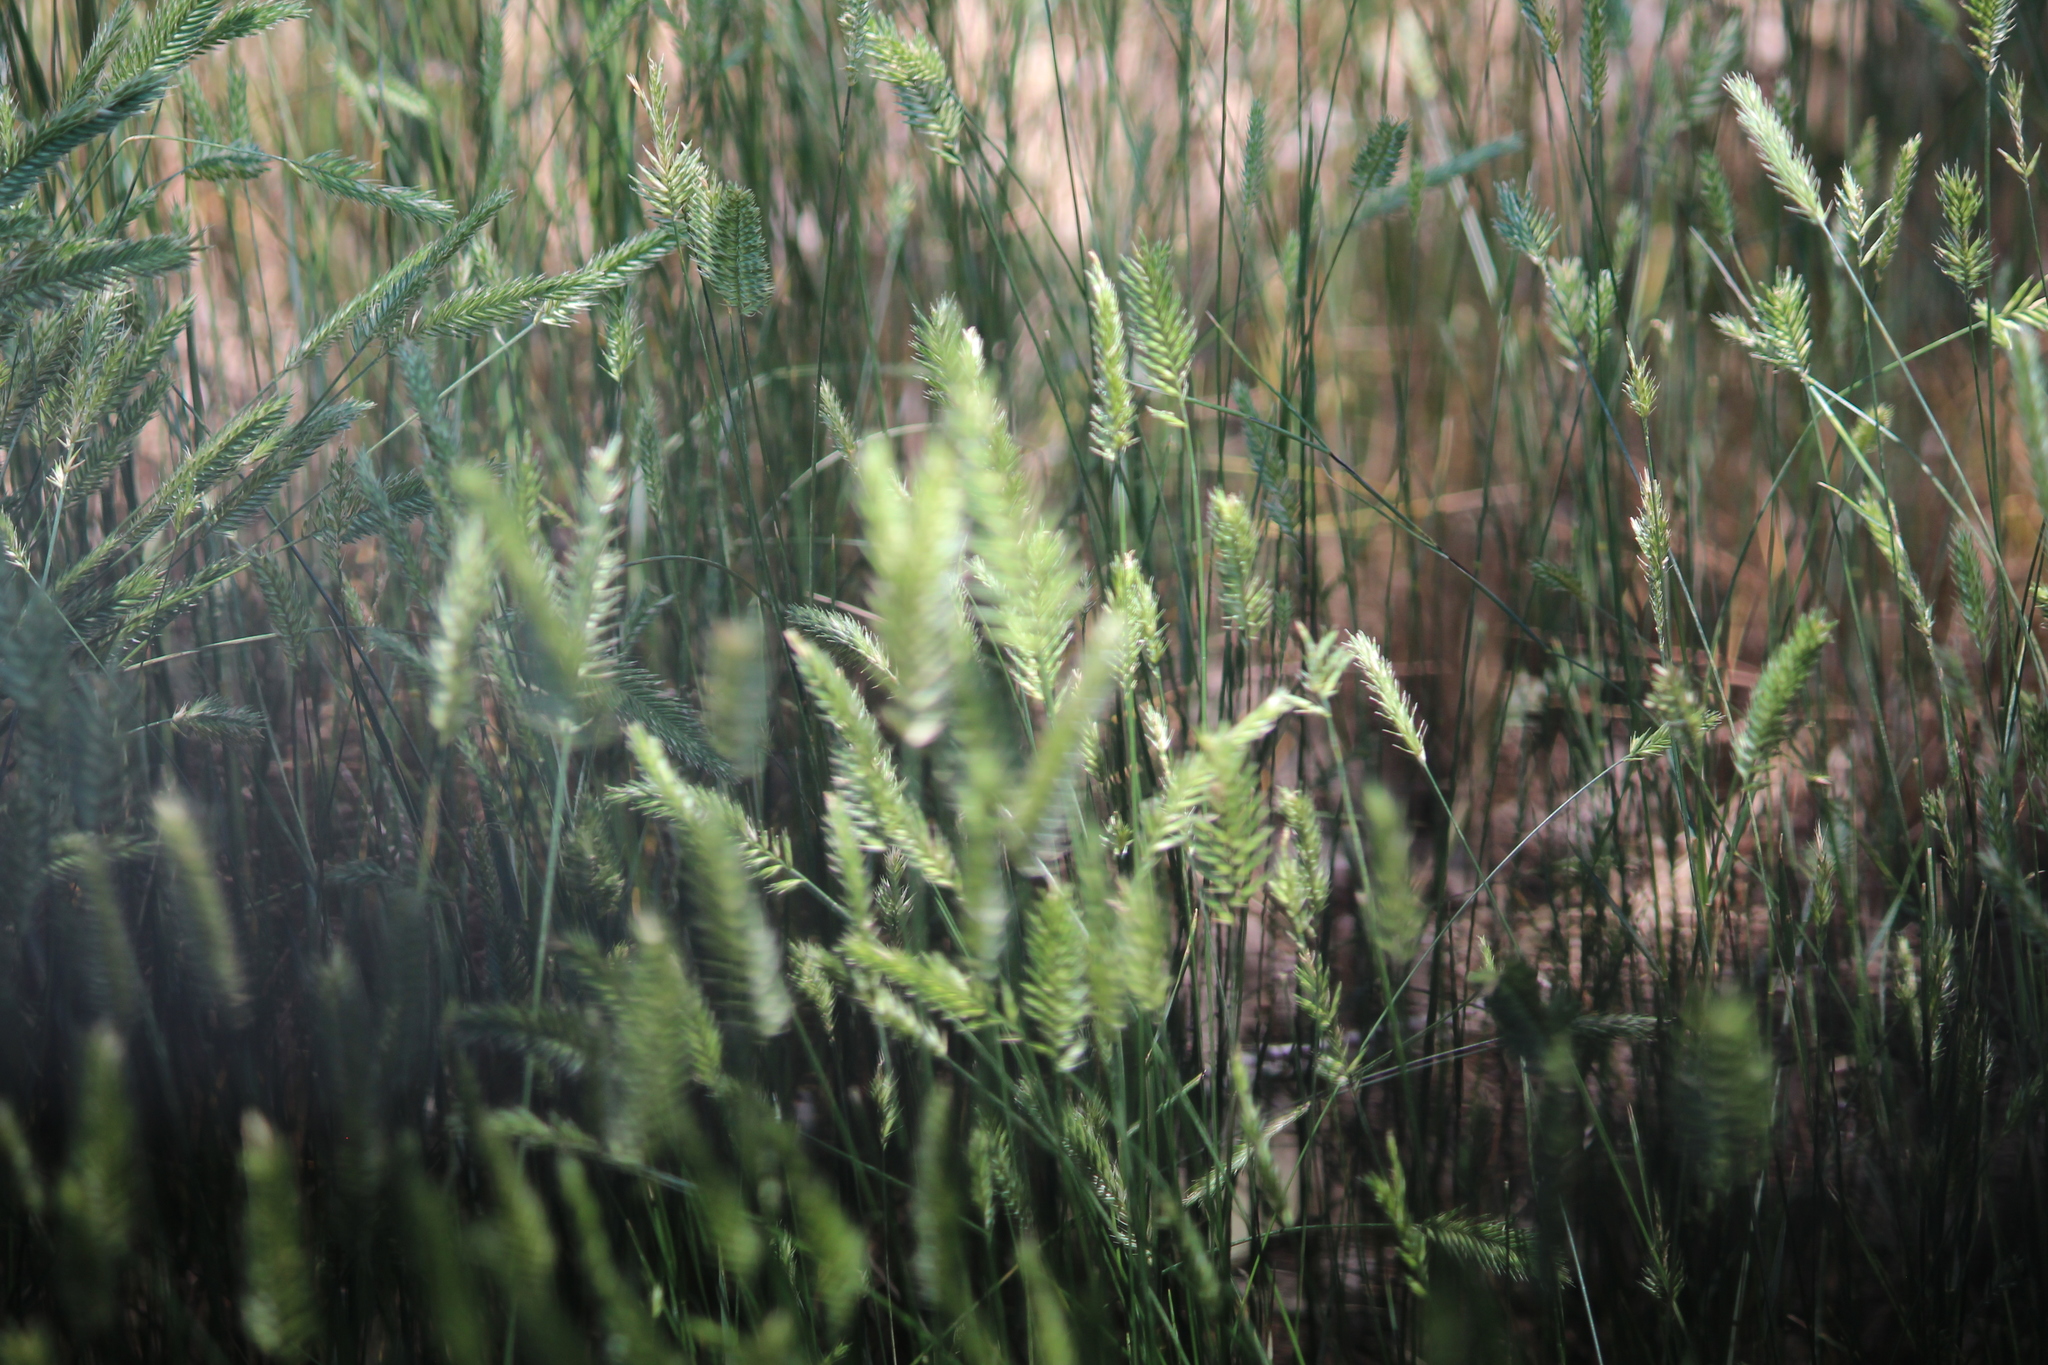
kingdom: Plantae
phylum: Tracheophyta
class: Liliopsida
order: Poales
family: Poaceae
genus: Agropyron
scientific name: Agropyron cristatum
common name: Crested wheatgrass
